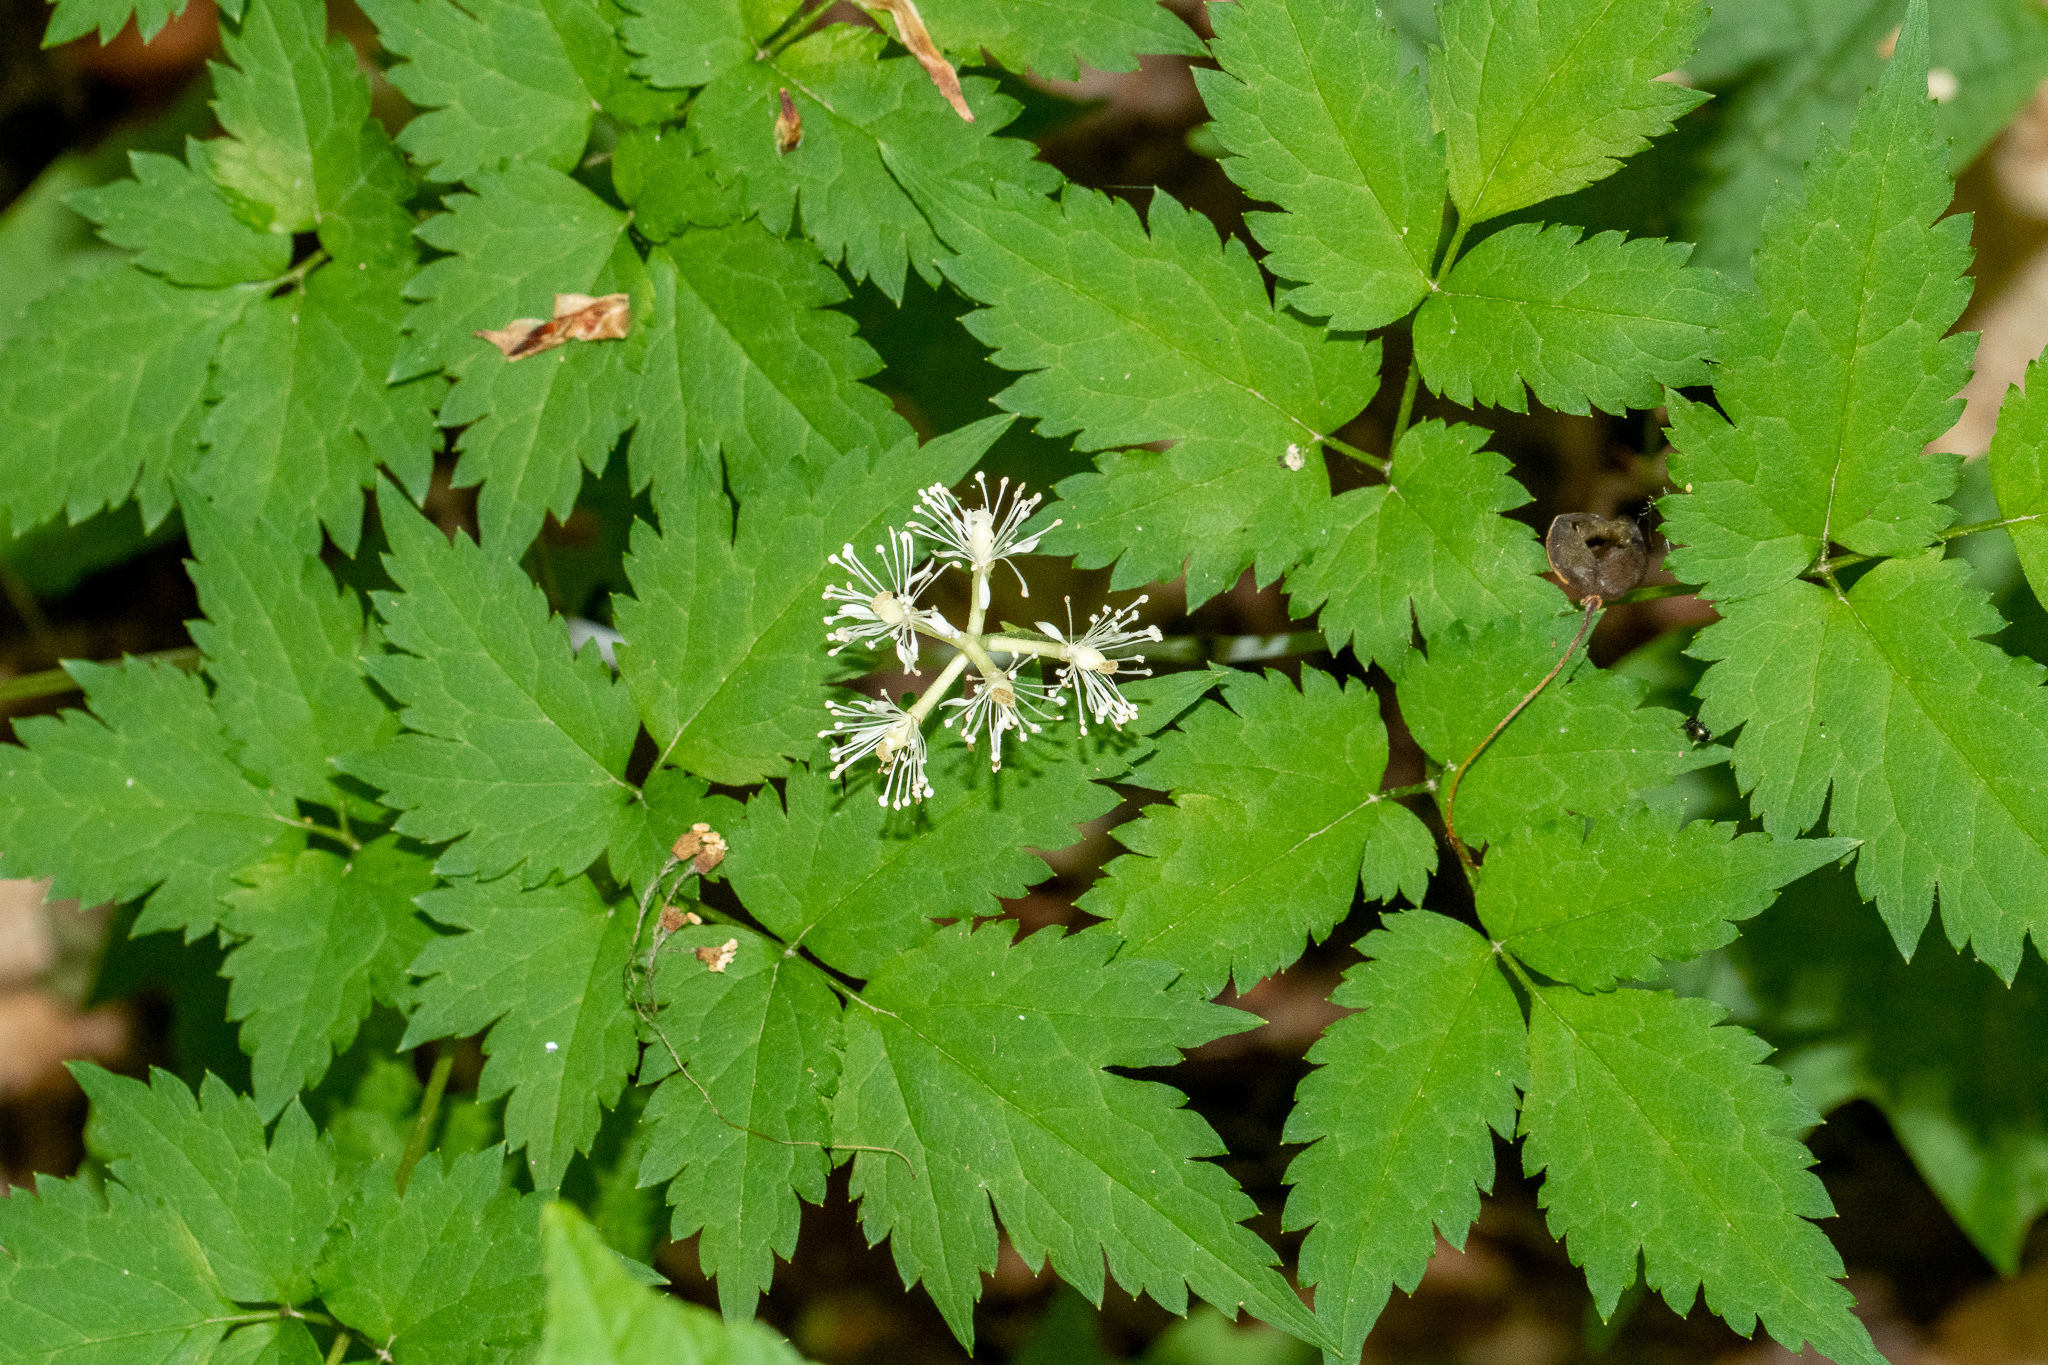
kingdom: Plantae
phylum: Tracheophyta
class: Magnoliopsida
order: Ranunculales
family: Ranunculaceae
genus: Actaea
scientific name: Actaea pachypoda
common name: Doll's-eyes
